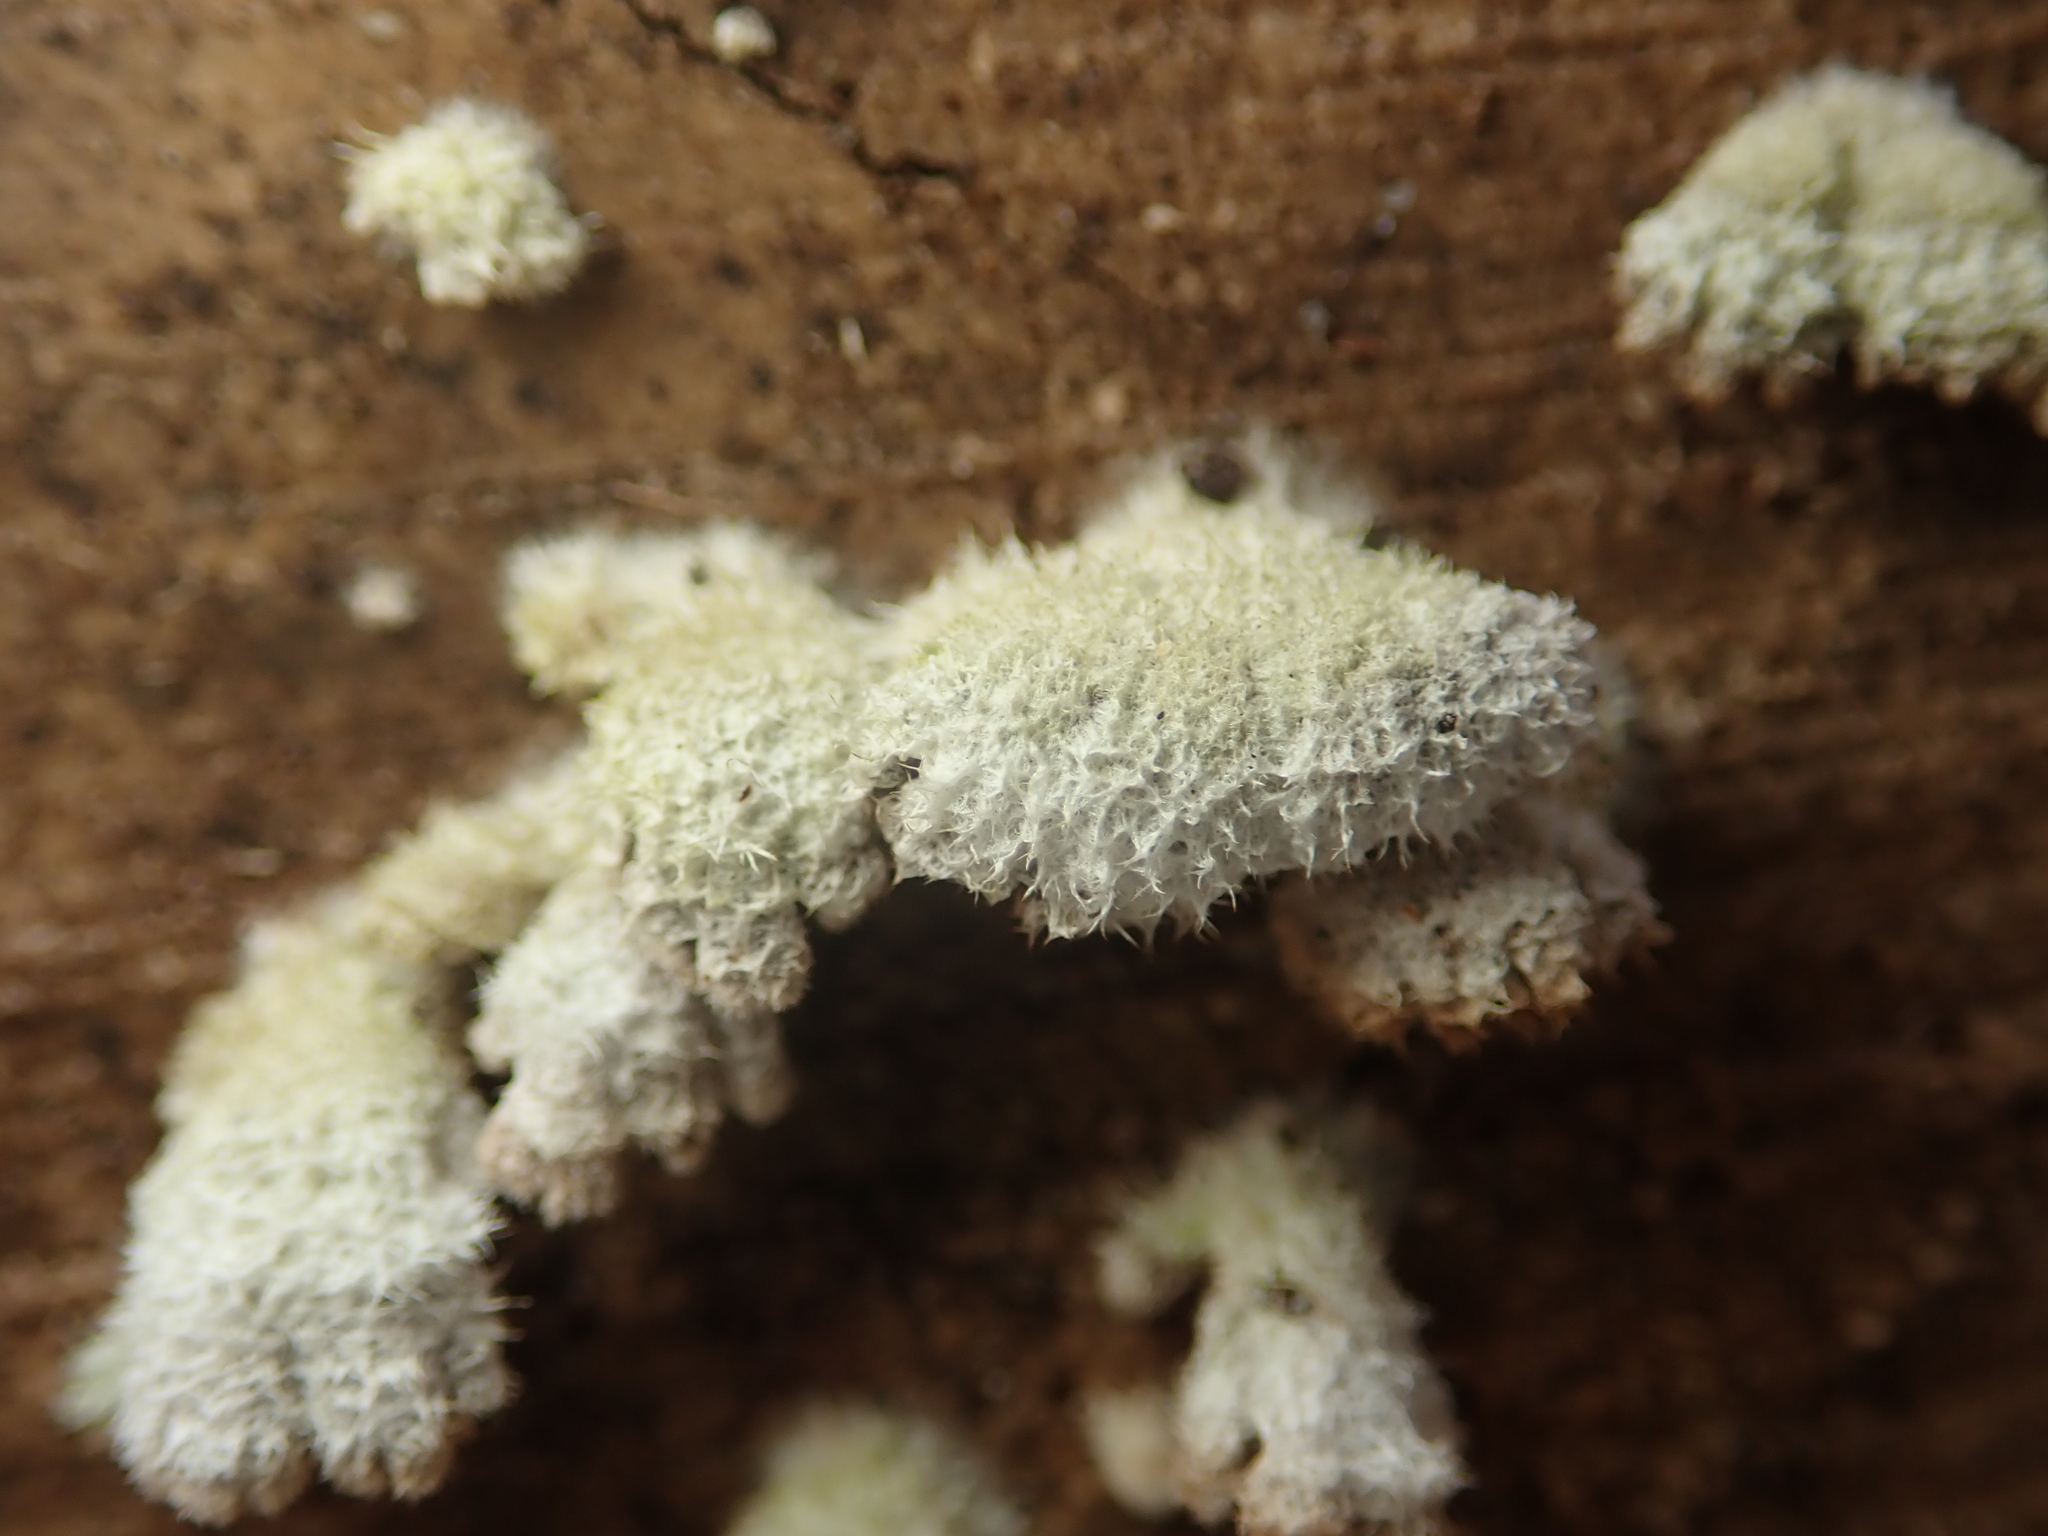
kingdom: Fungi
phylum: Basidiomycota
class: Agaricomycetes
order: Agaricales
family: Schizophyllaceae
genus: Schizophyllum
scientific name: Schizophyllum commune
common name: Common porecrust
